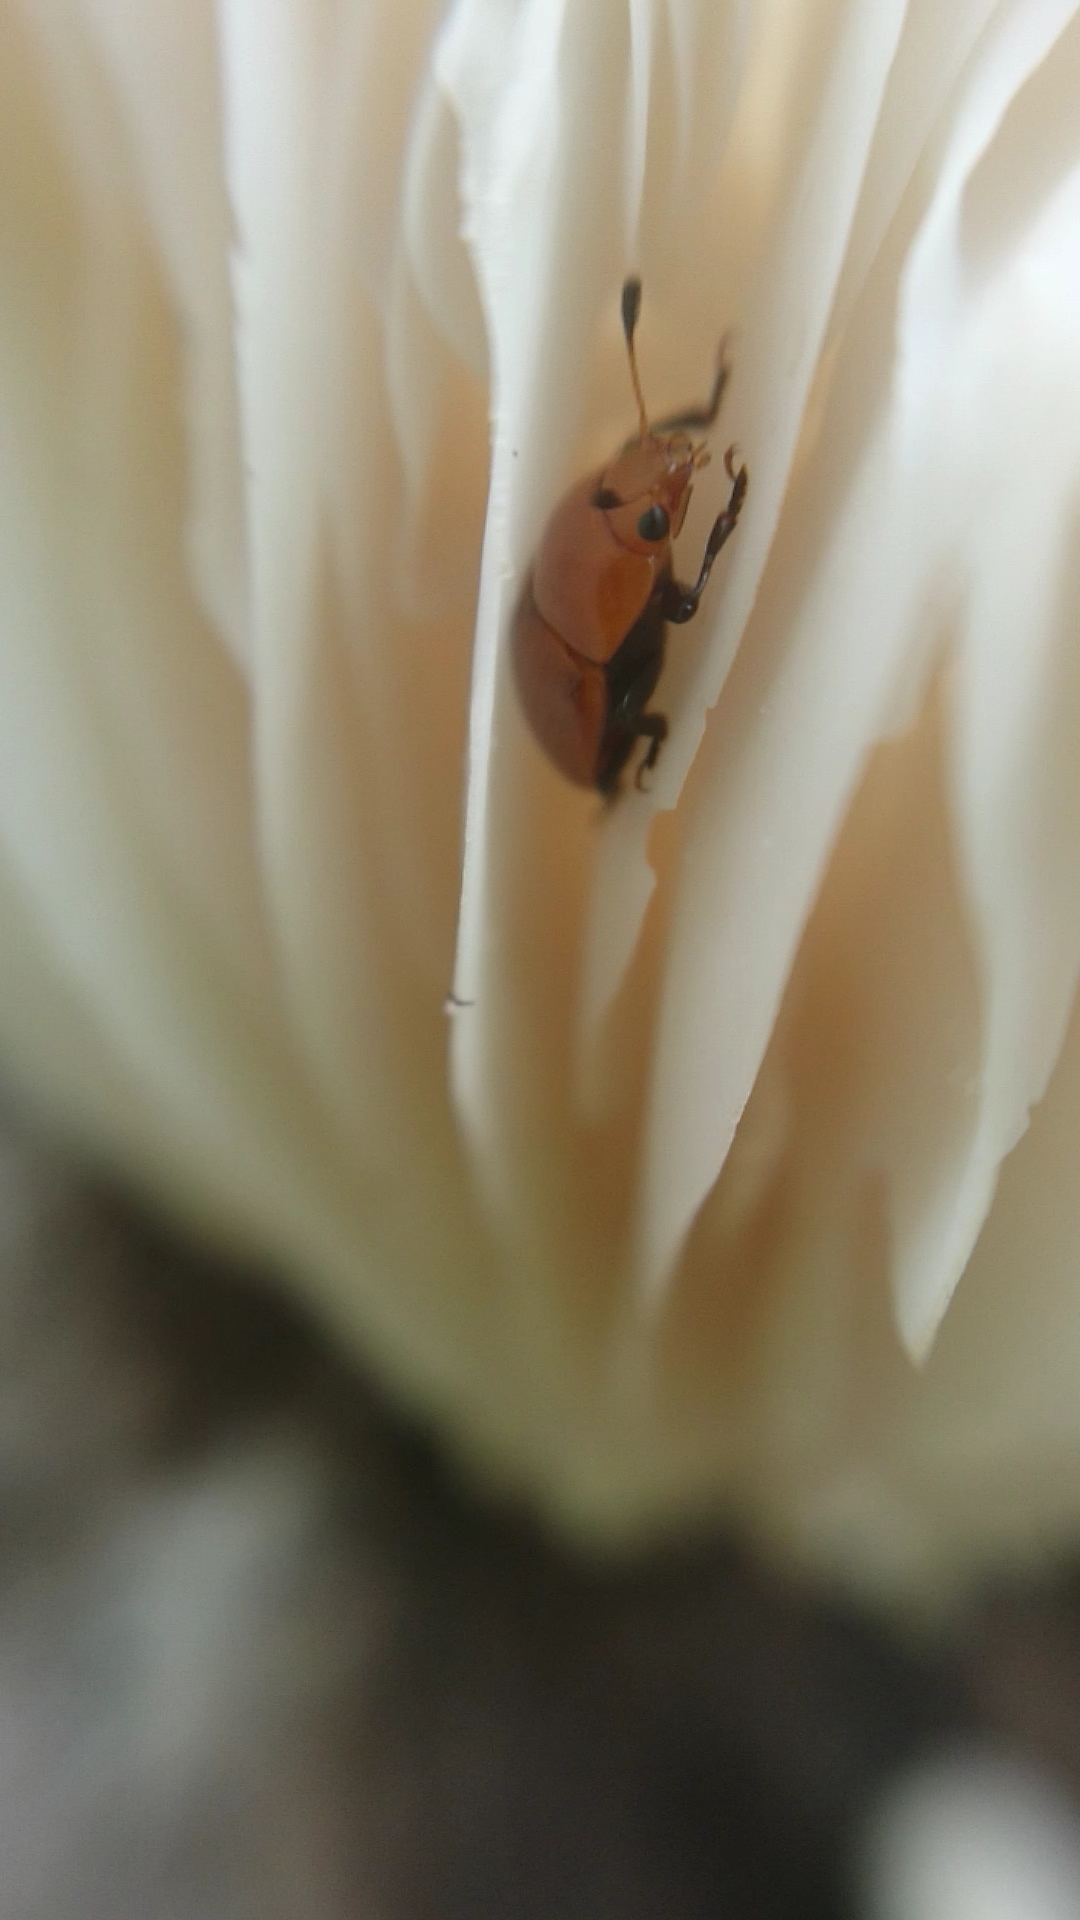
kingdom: Animalia
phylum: Arthropoda
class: Insecta
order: Coleoptera
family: Erotylidae
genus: Mycomystes
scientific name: Mycomystes nigriventris
